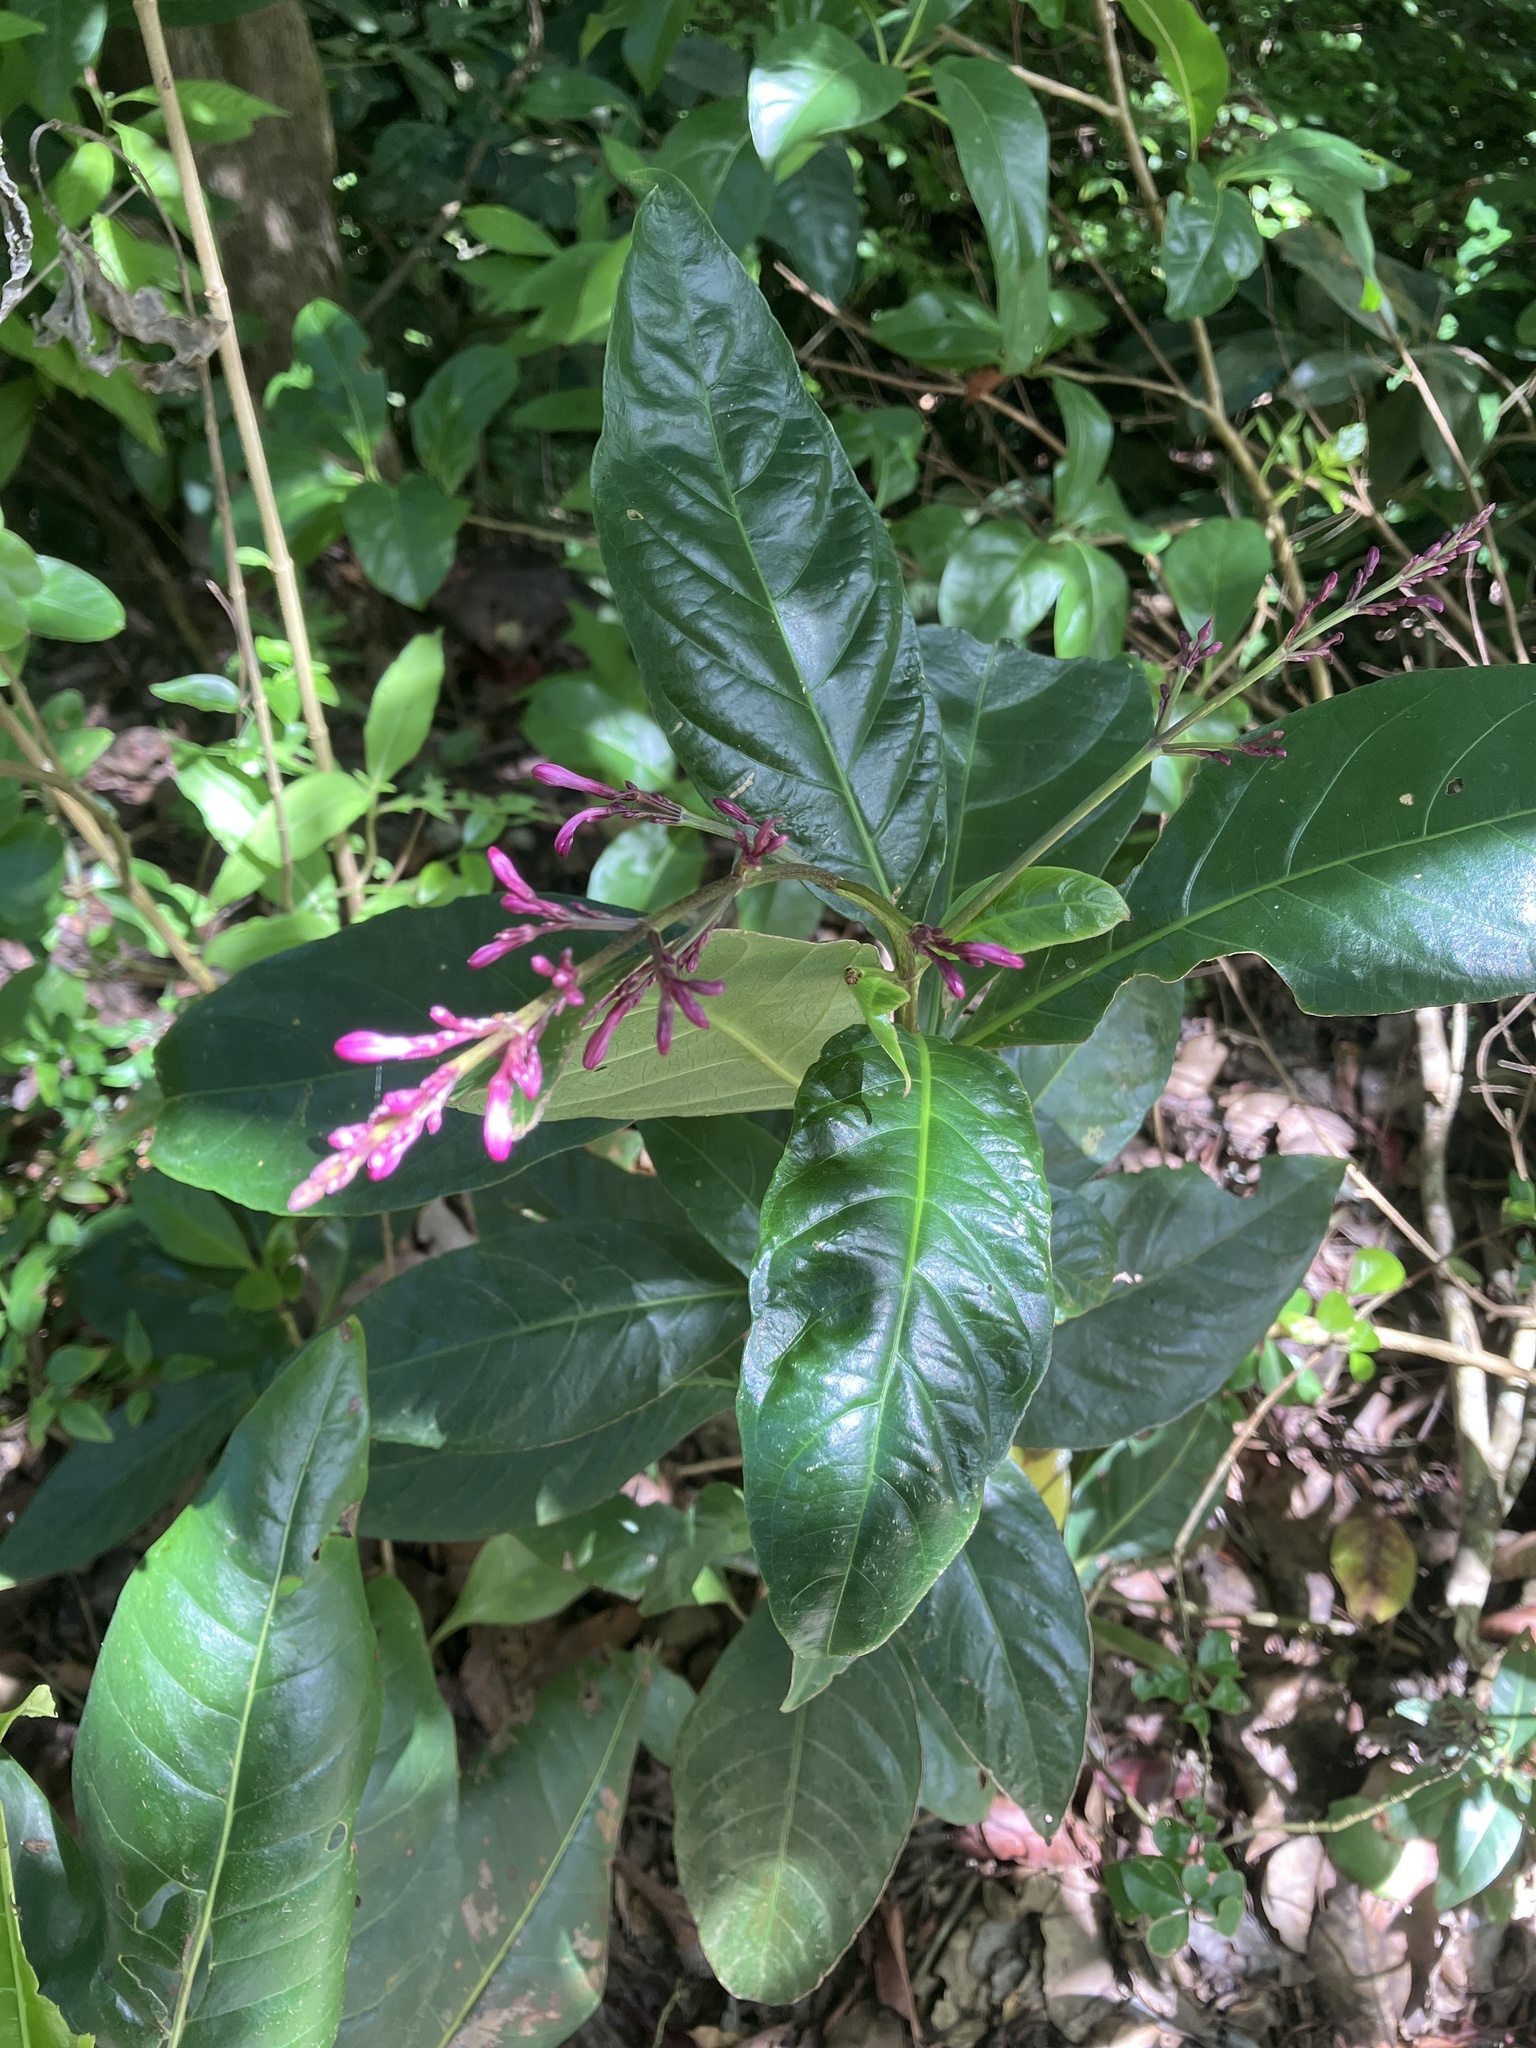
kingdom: Plantae
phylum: Tracheophyta
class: Magnoliopsida
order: Lamiales
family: Acanthaceae
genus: Odontonema
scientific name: Odontonema nitidum
